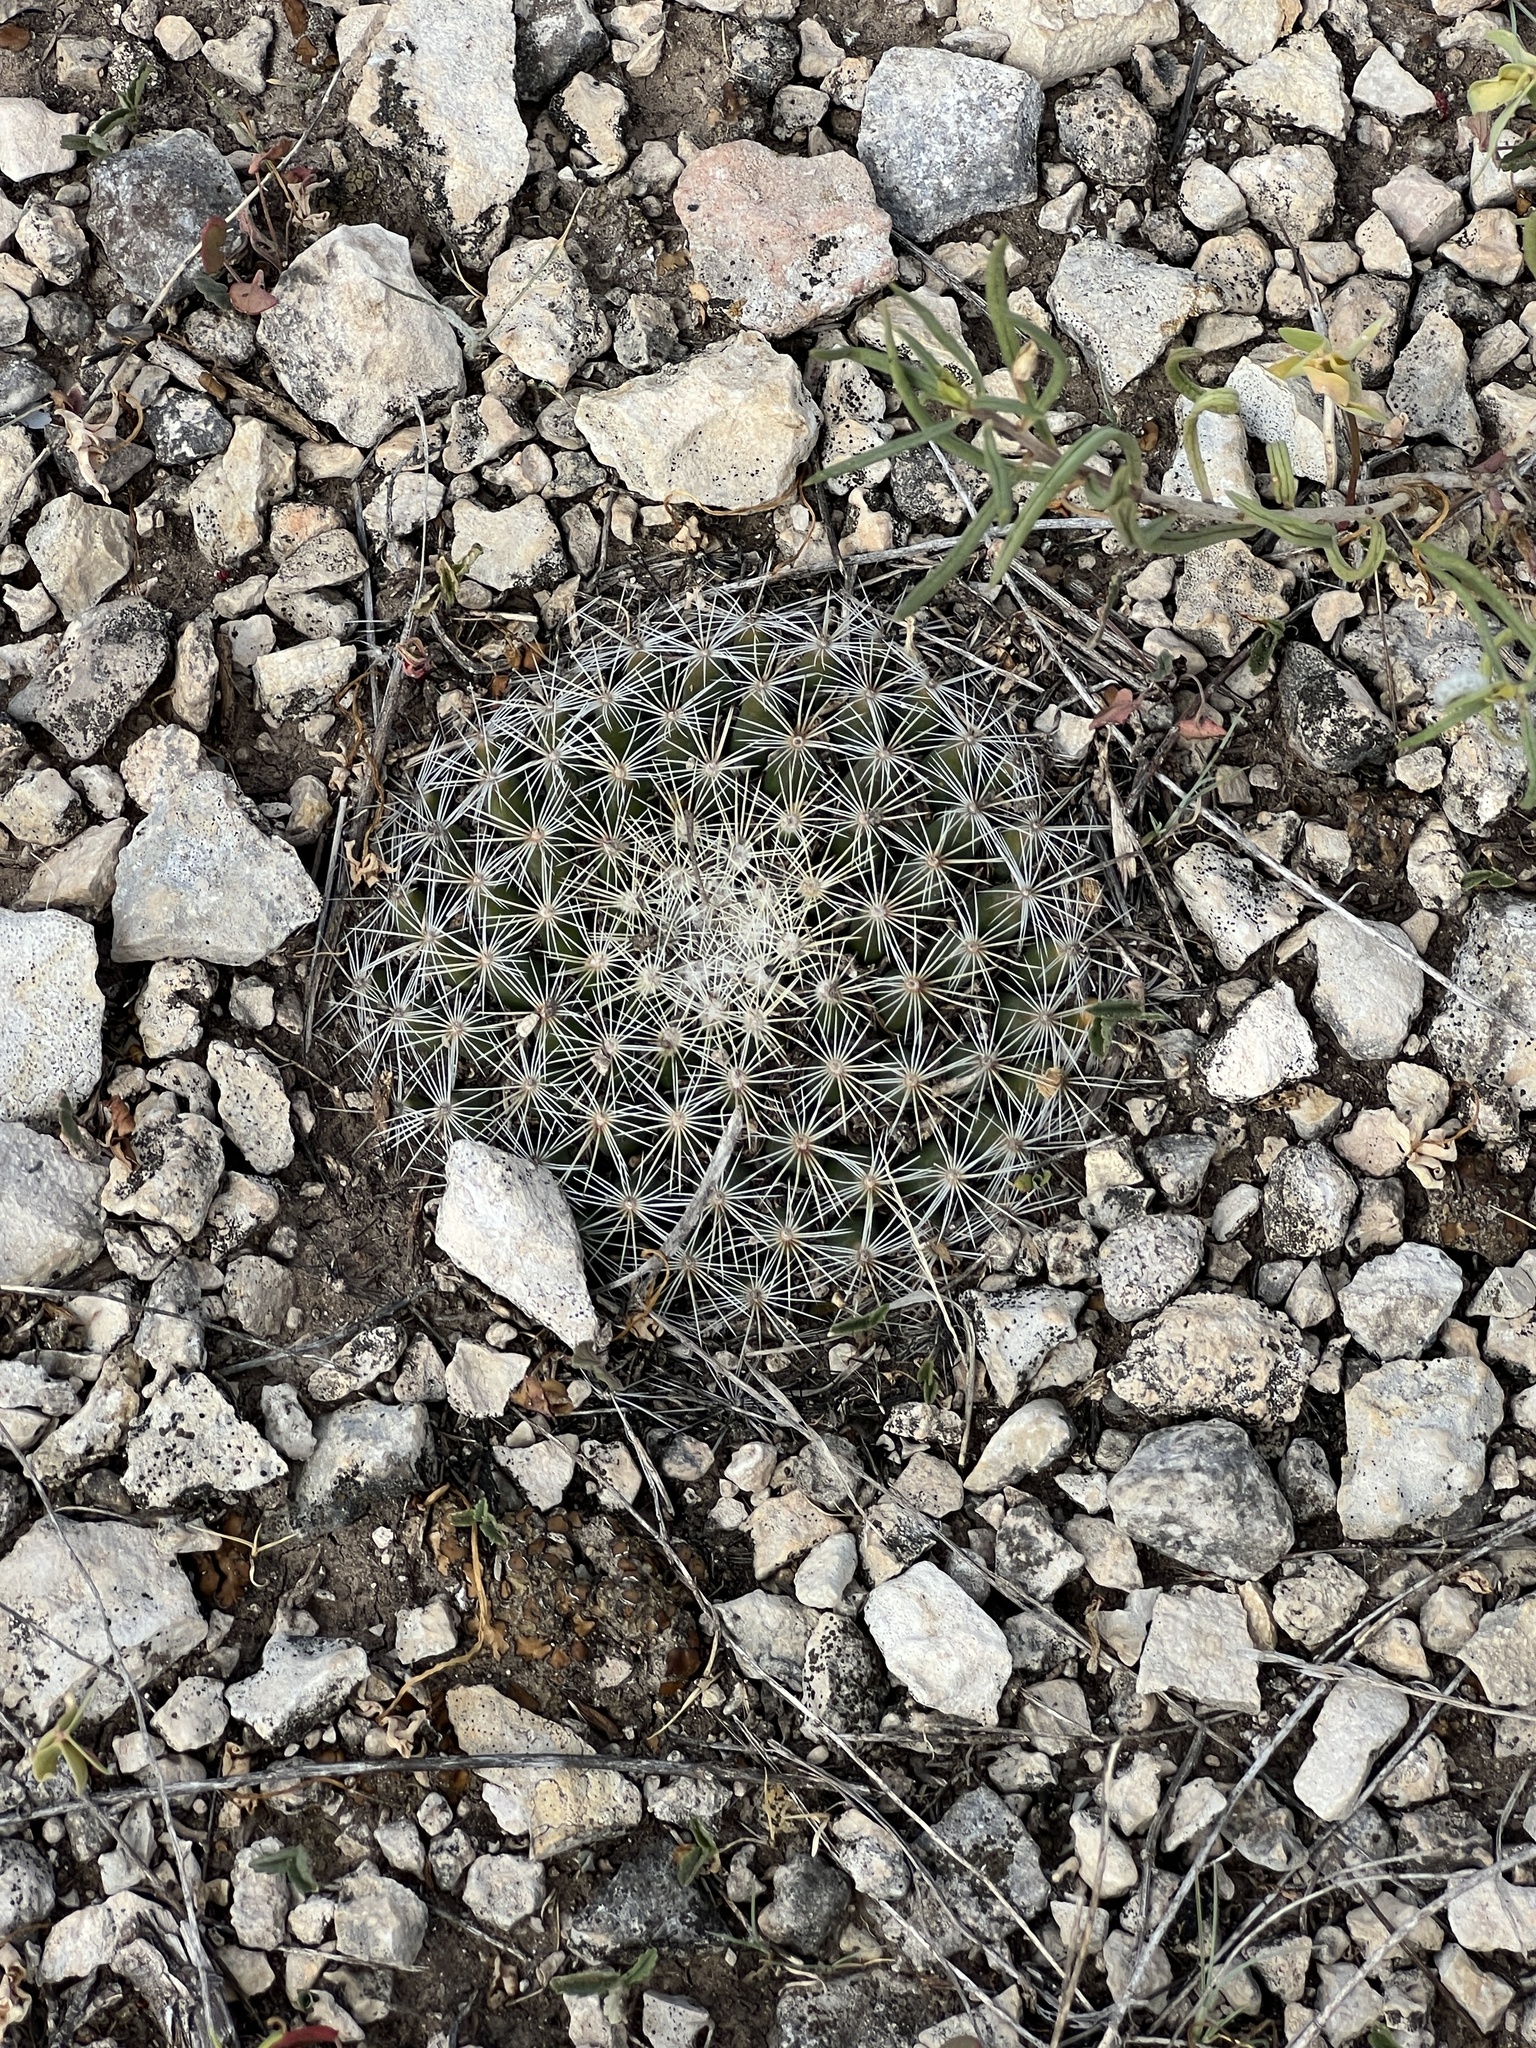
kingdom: Plantae
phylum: Tracheophyta
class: Magnoliopsida
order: Caryophyllales
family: Cactaceae
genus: Mammillaria
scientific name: Mammillaria heyderi
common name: Little nipple cactus
